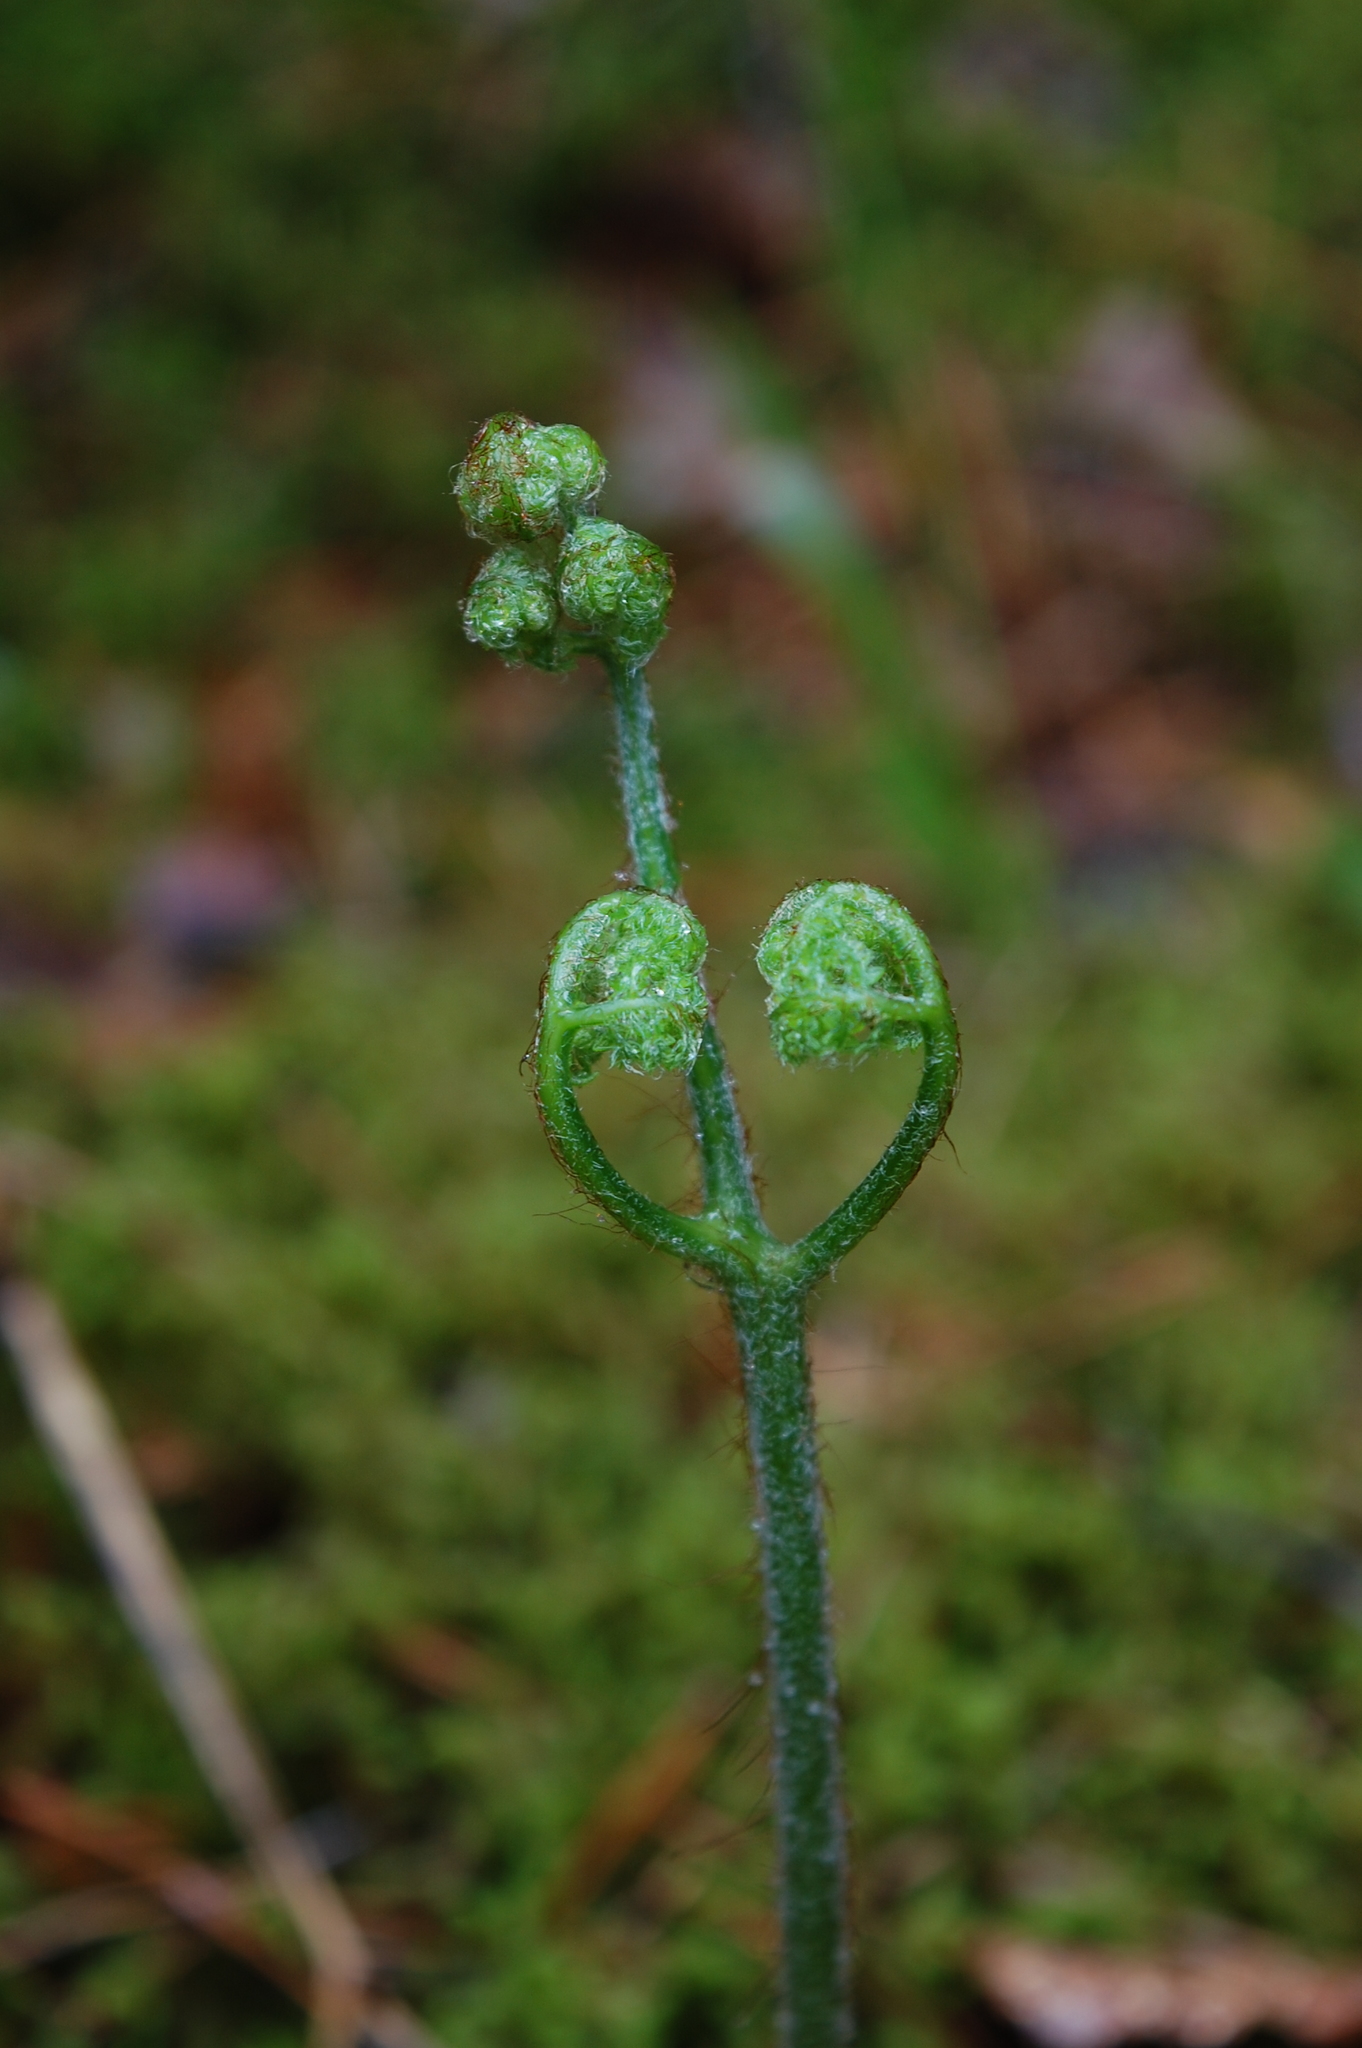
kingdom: Plantae
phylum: Tracheophyta
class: Polypodiopsida
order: Polypodiales
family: Dennstaedtiaceae
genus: Pteridium
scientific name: Pteridium aquilinum
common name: Bracken
